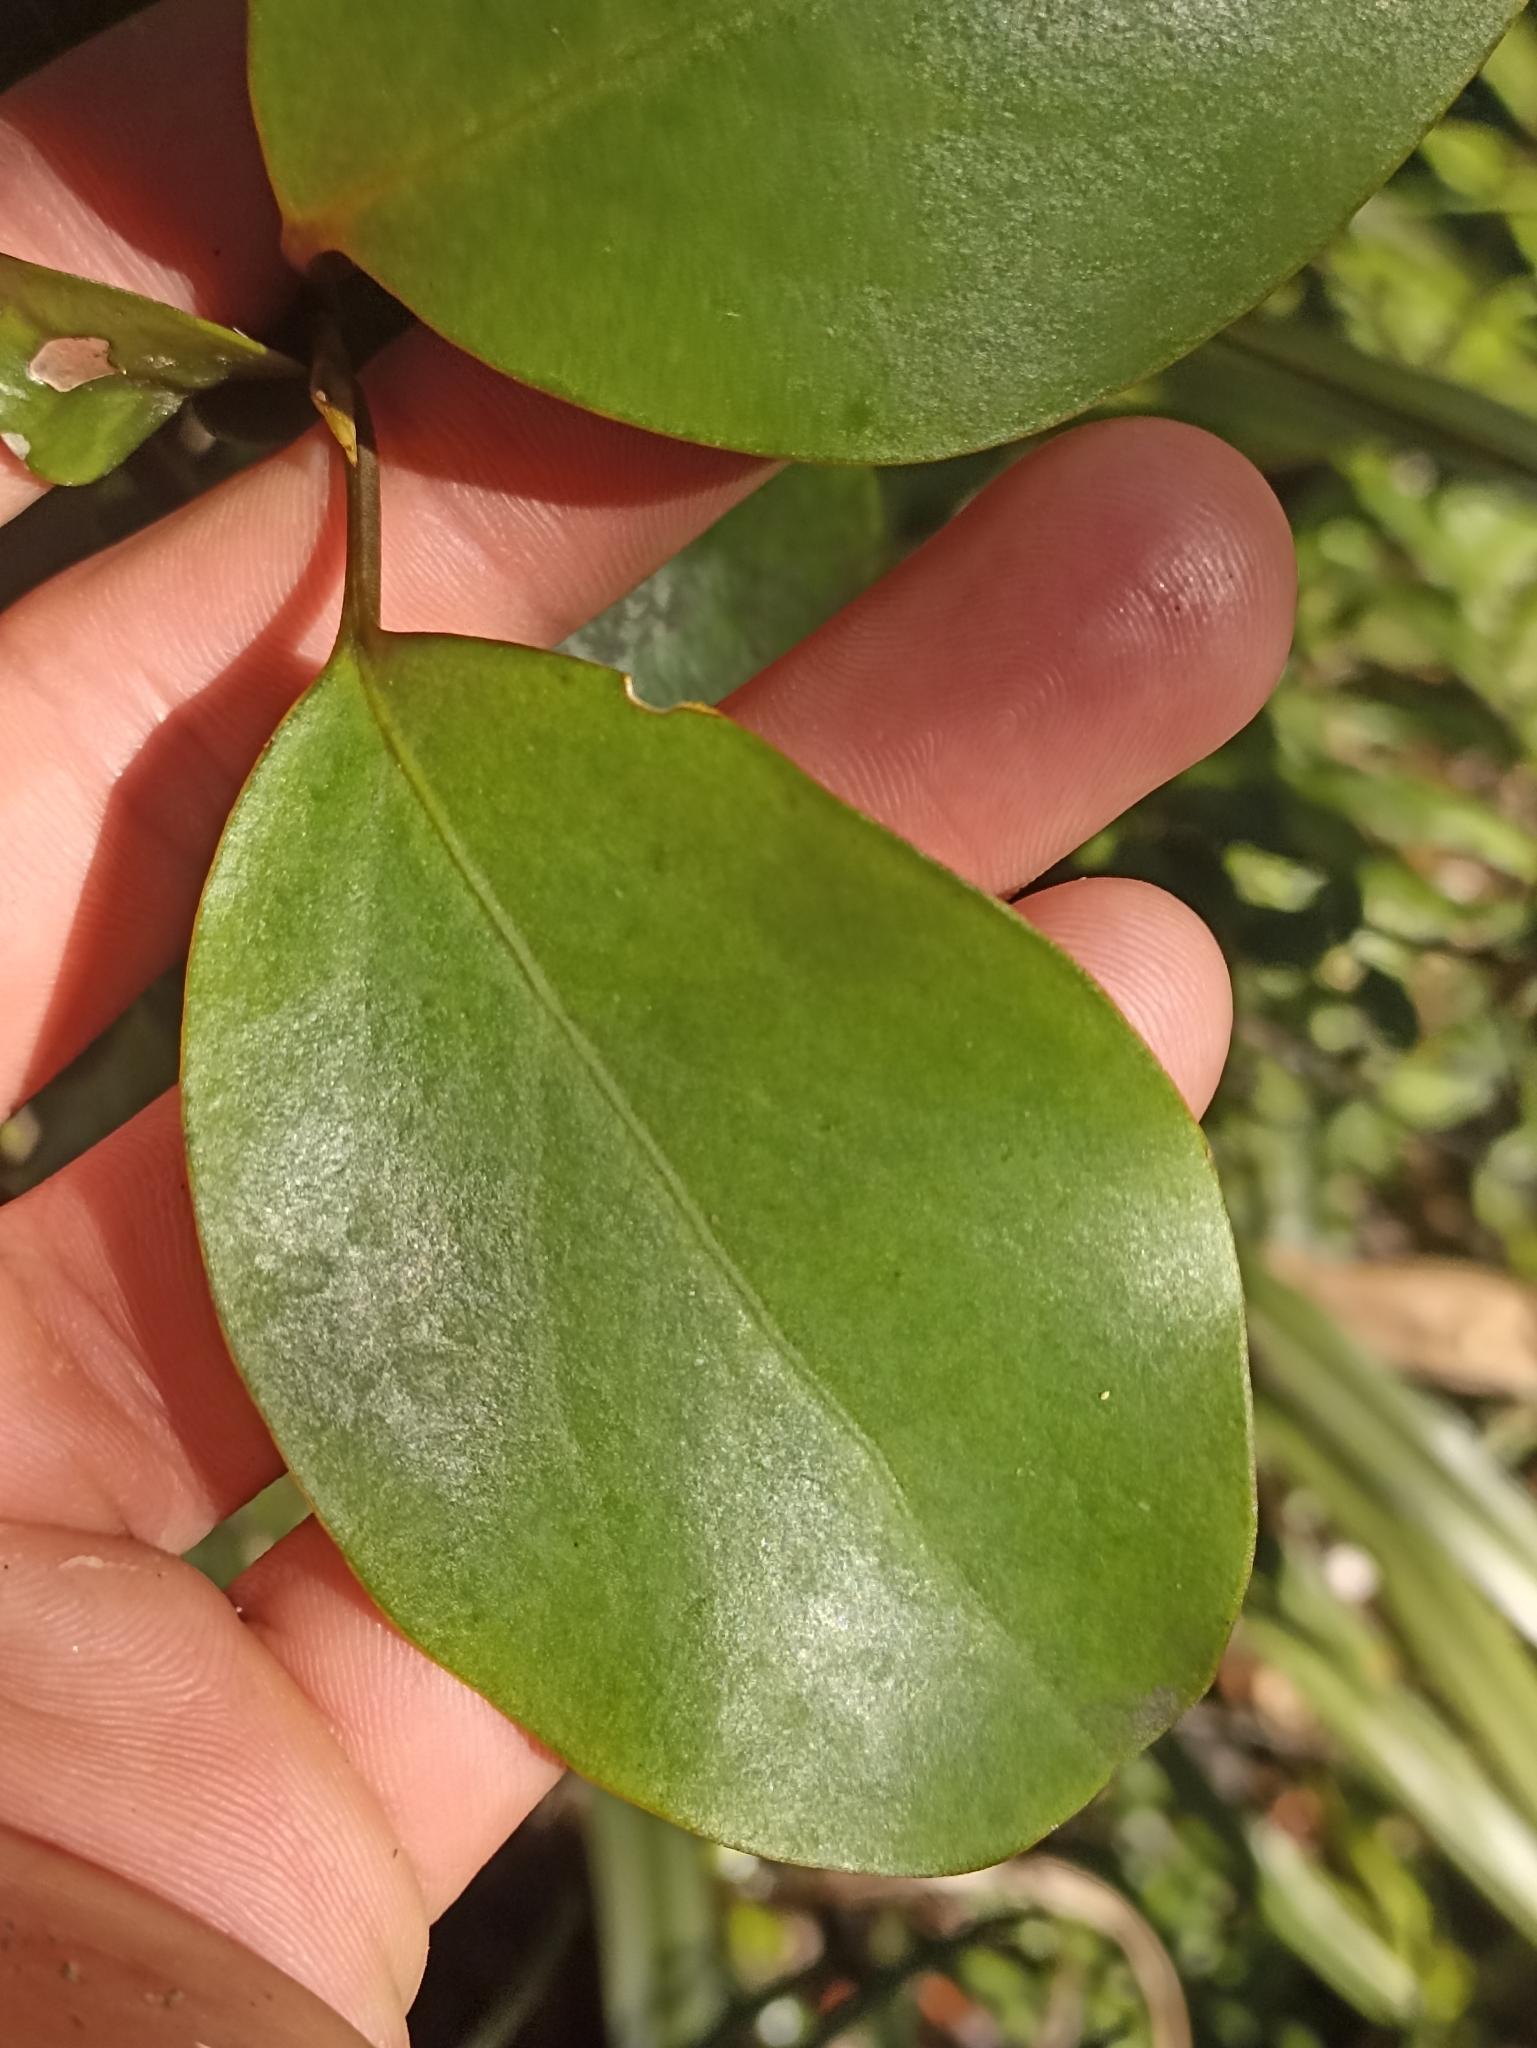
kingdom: Plantae
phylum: Tracheophyta
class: Magnoliopsida
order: Apiales
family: Griseliniaceae
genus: Griselinia
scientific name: Griselinia littoralis
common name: New zealand broadleaf
